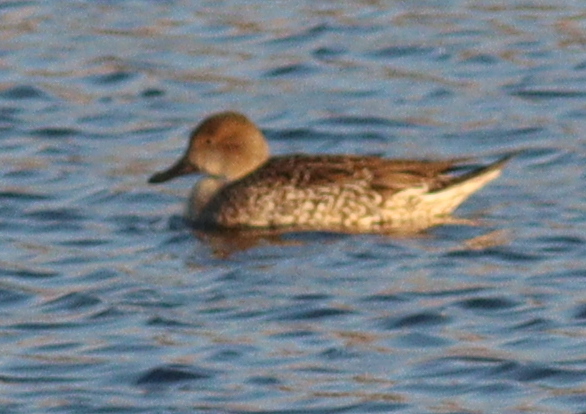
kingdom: Animalia
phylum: Chordata
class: Aves
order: Anseriformes
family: Anatidae
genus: Anas
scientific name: Anas acuta
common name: Northern pintail
